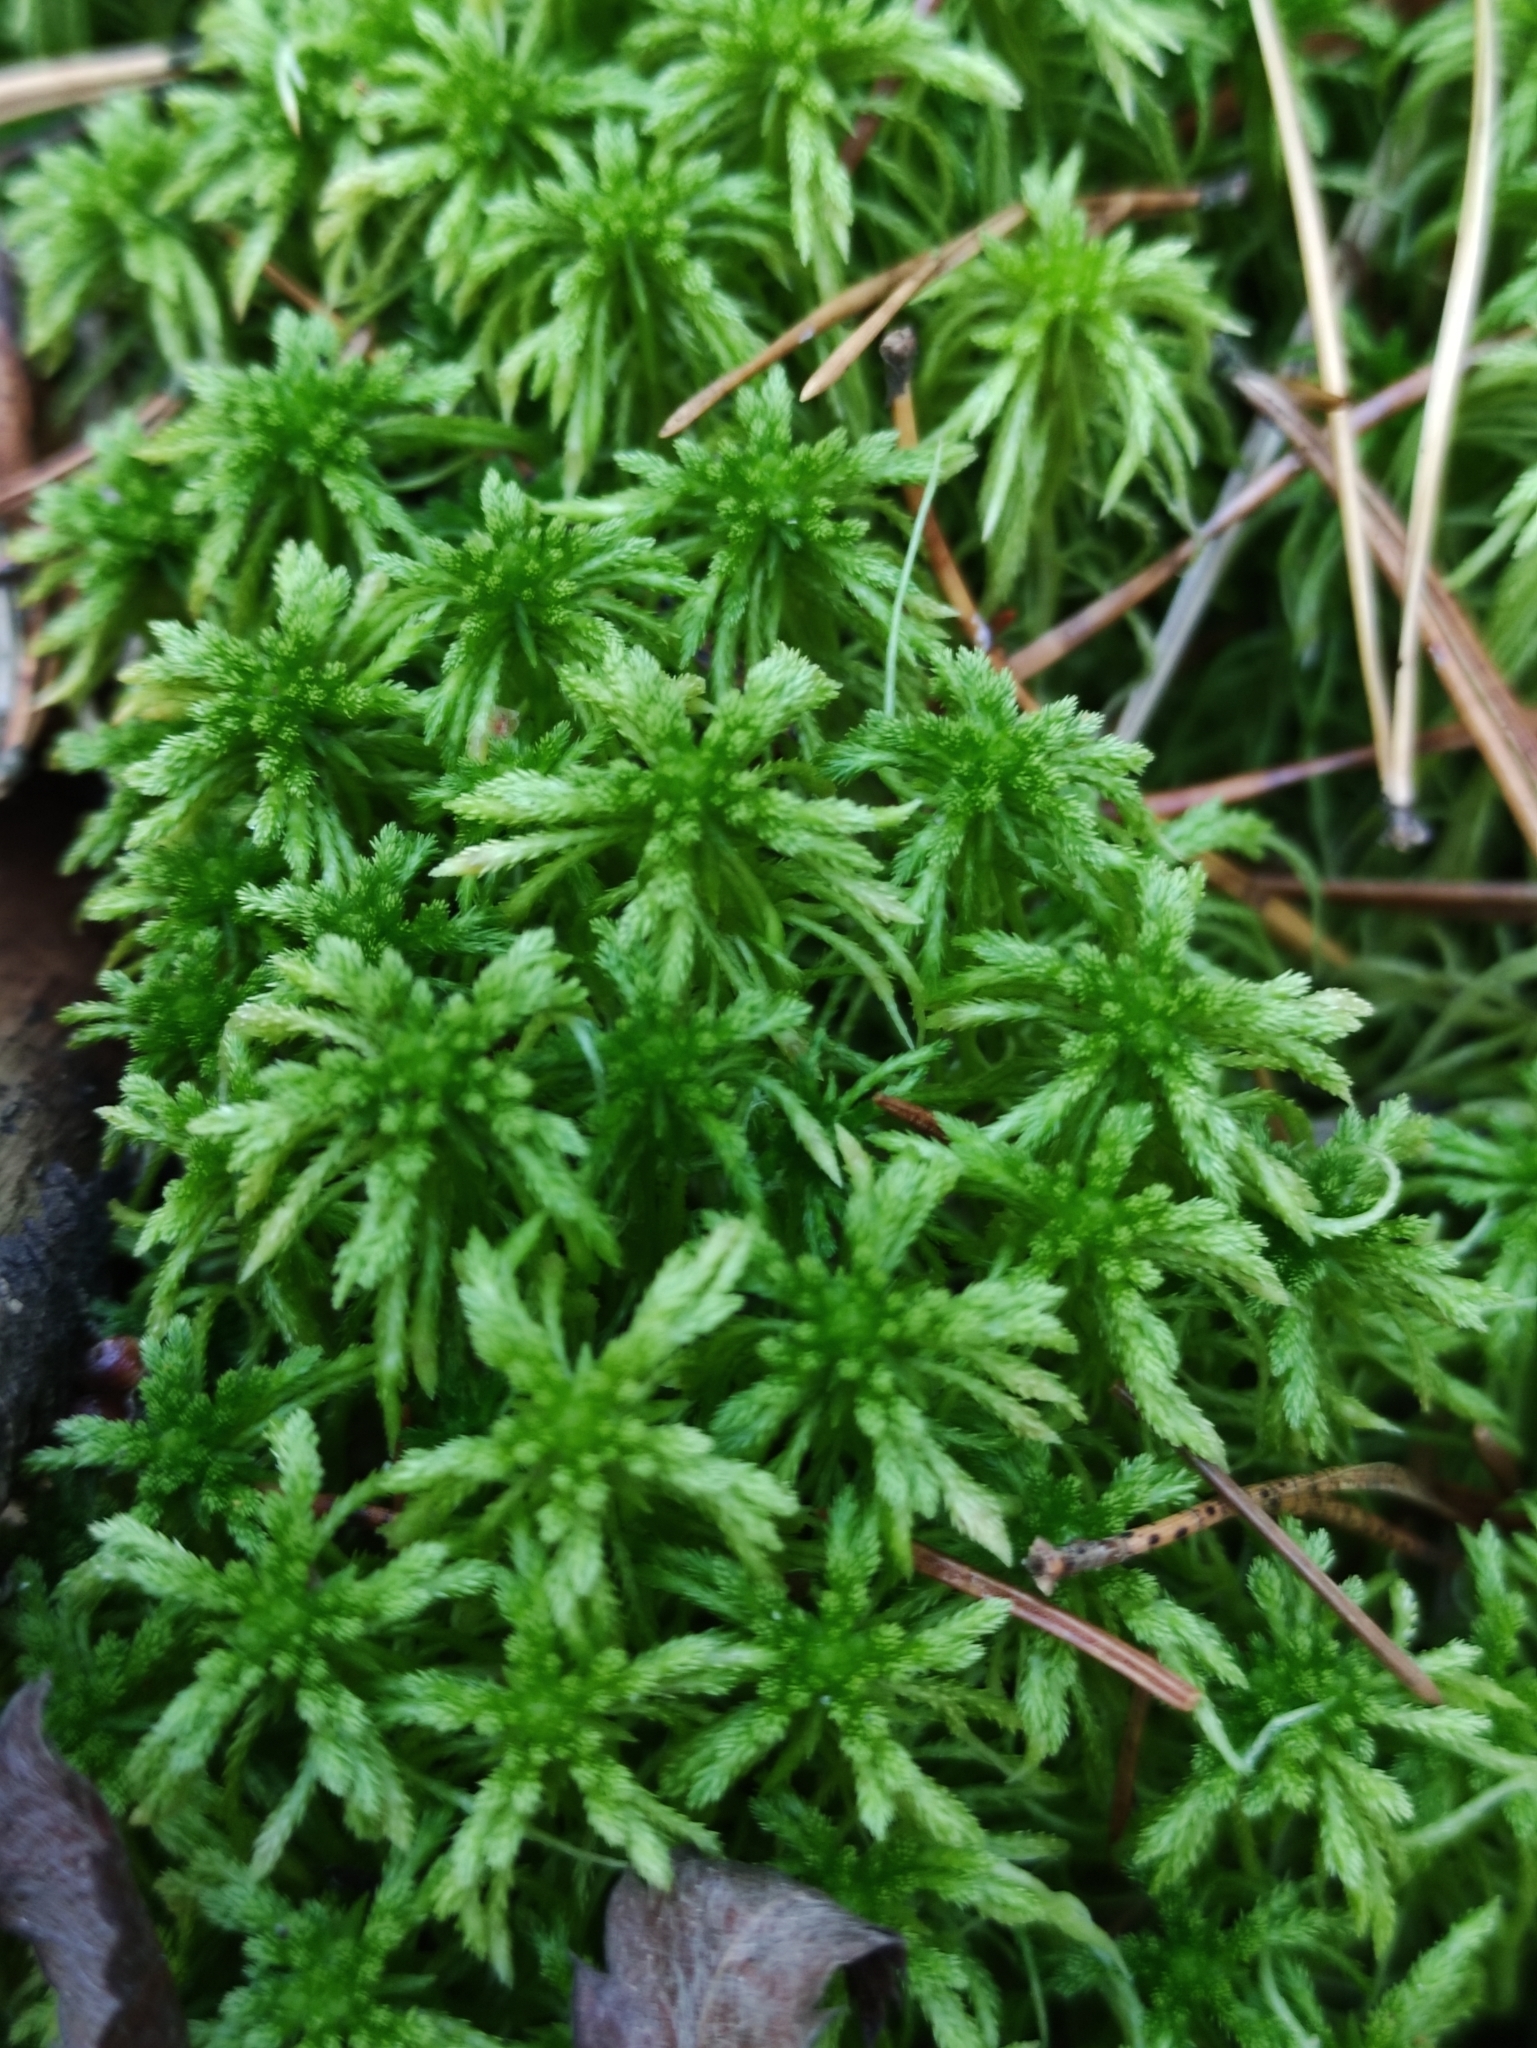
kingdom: Plantae
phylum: Bryophyta
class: Sphagnopsida
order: Sphagnales
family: Sphagnaceae
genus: Sphagnum
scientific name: Sphagnum girgensohnii
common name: Girgensohn's peat moss
